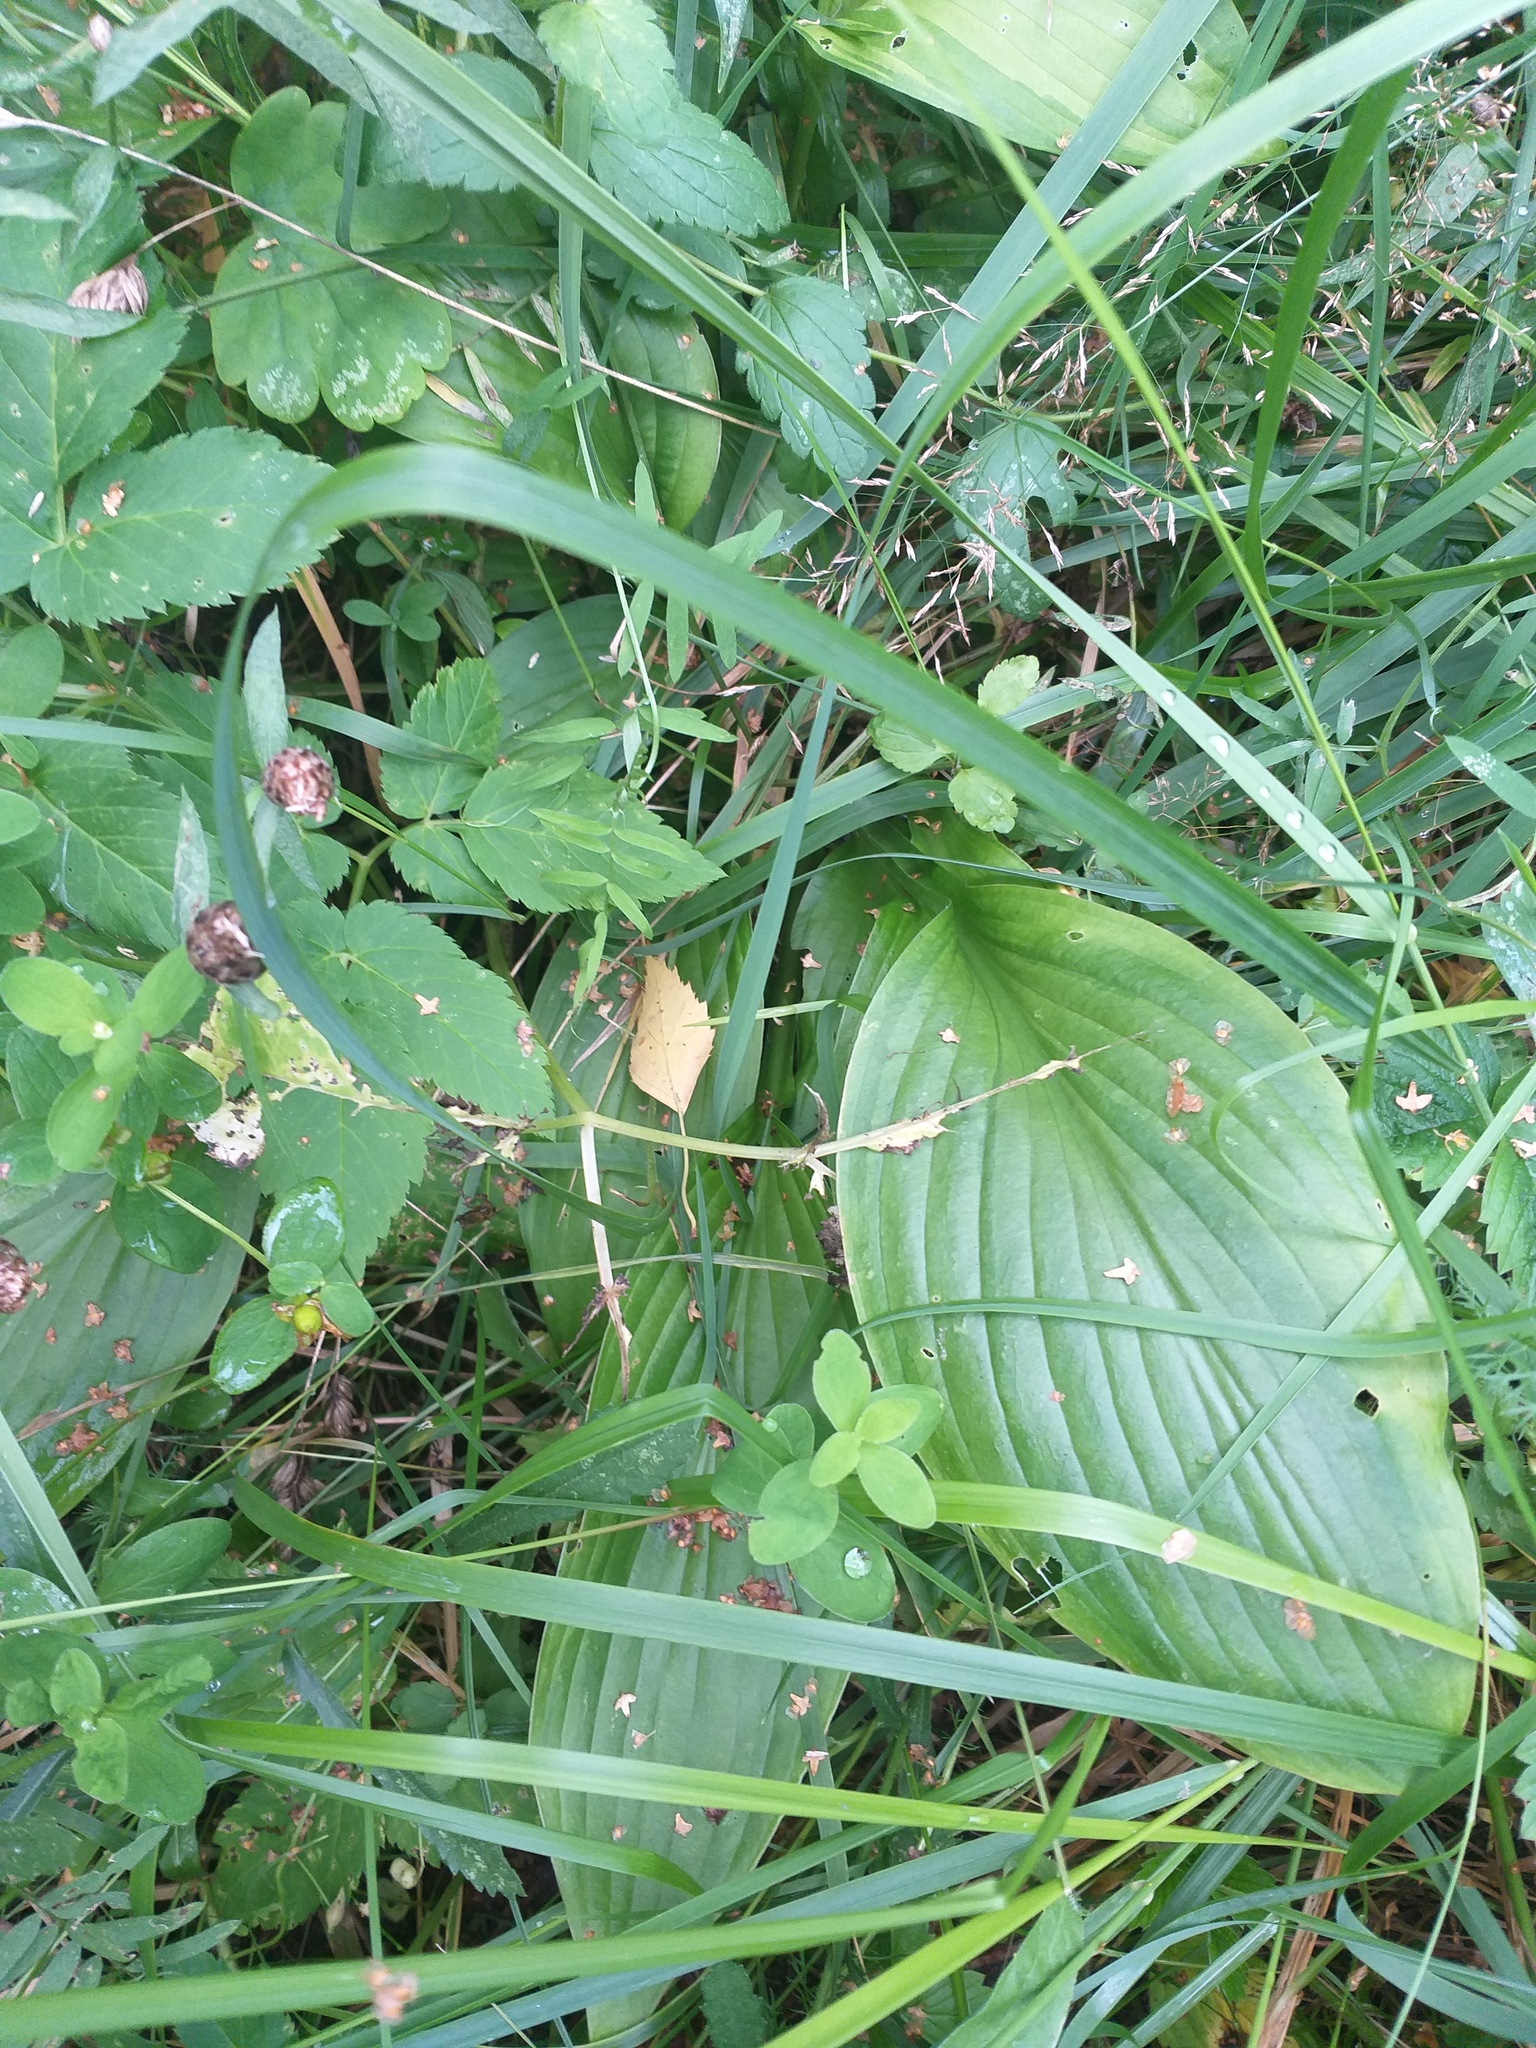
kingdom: Plantae
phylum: Tracheophyta
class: Liliopsida
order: Asparagales
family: Asparagaceae
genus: Hosta
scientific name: Hosta undulata
